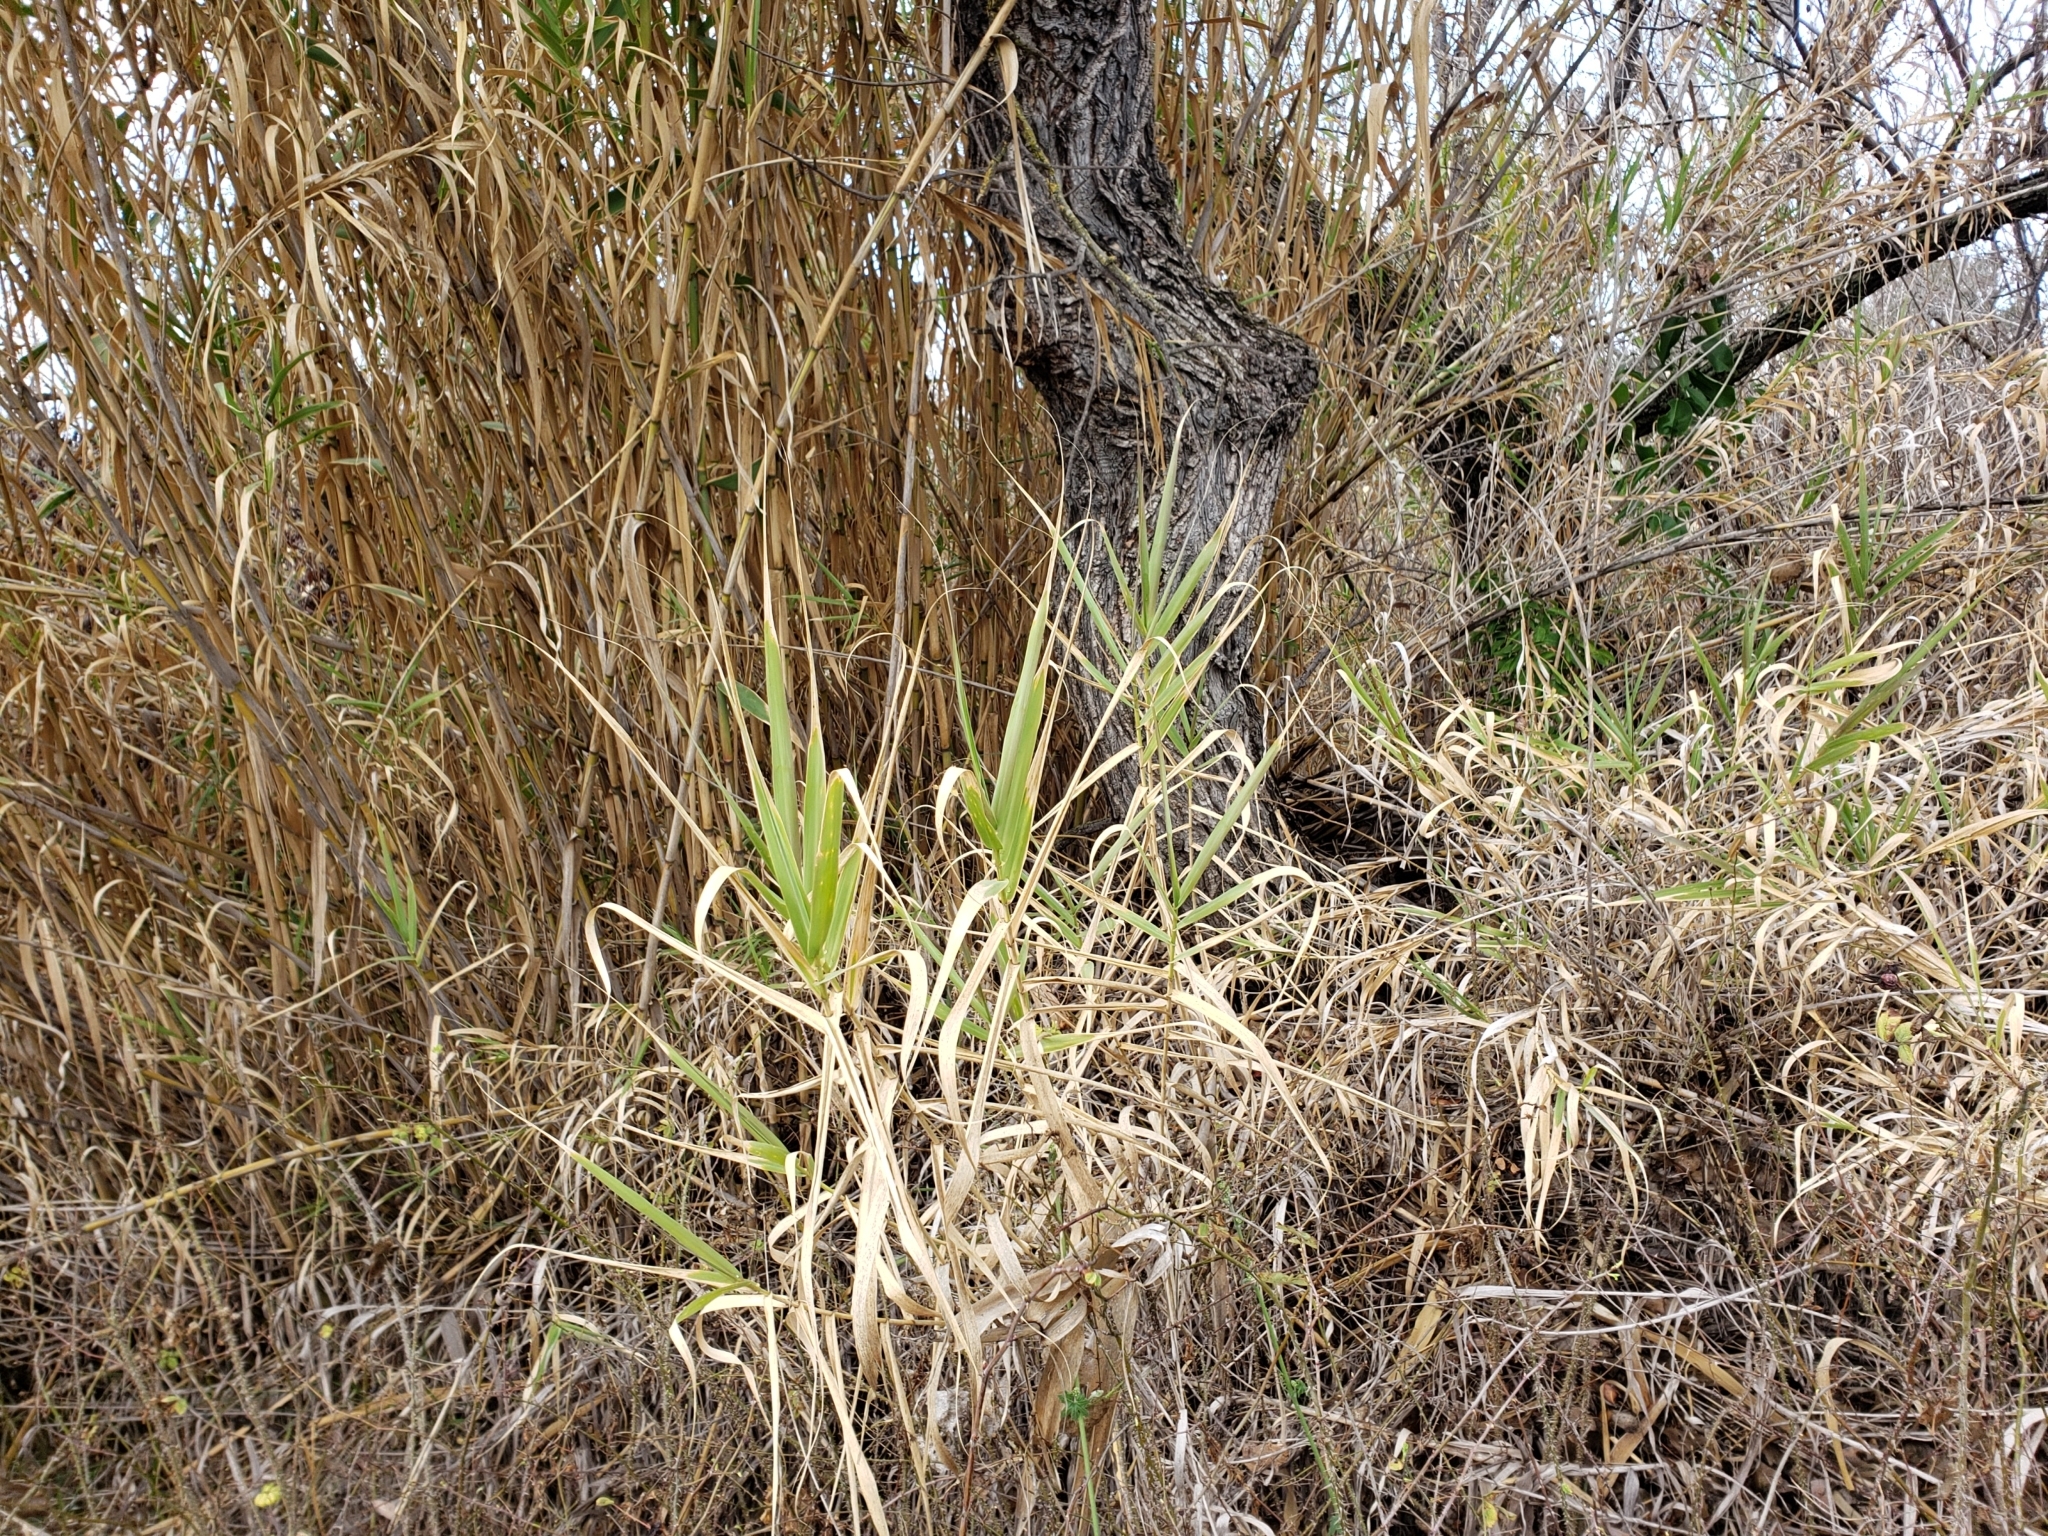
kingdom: Plantae
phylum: Tracheophyta
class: Liliopsida
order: Poales
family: Poaceae
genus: Arundo
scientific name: Arundo donax
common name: Giant reed
